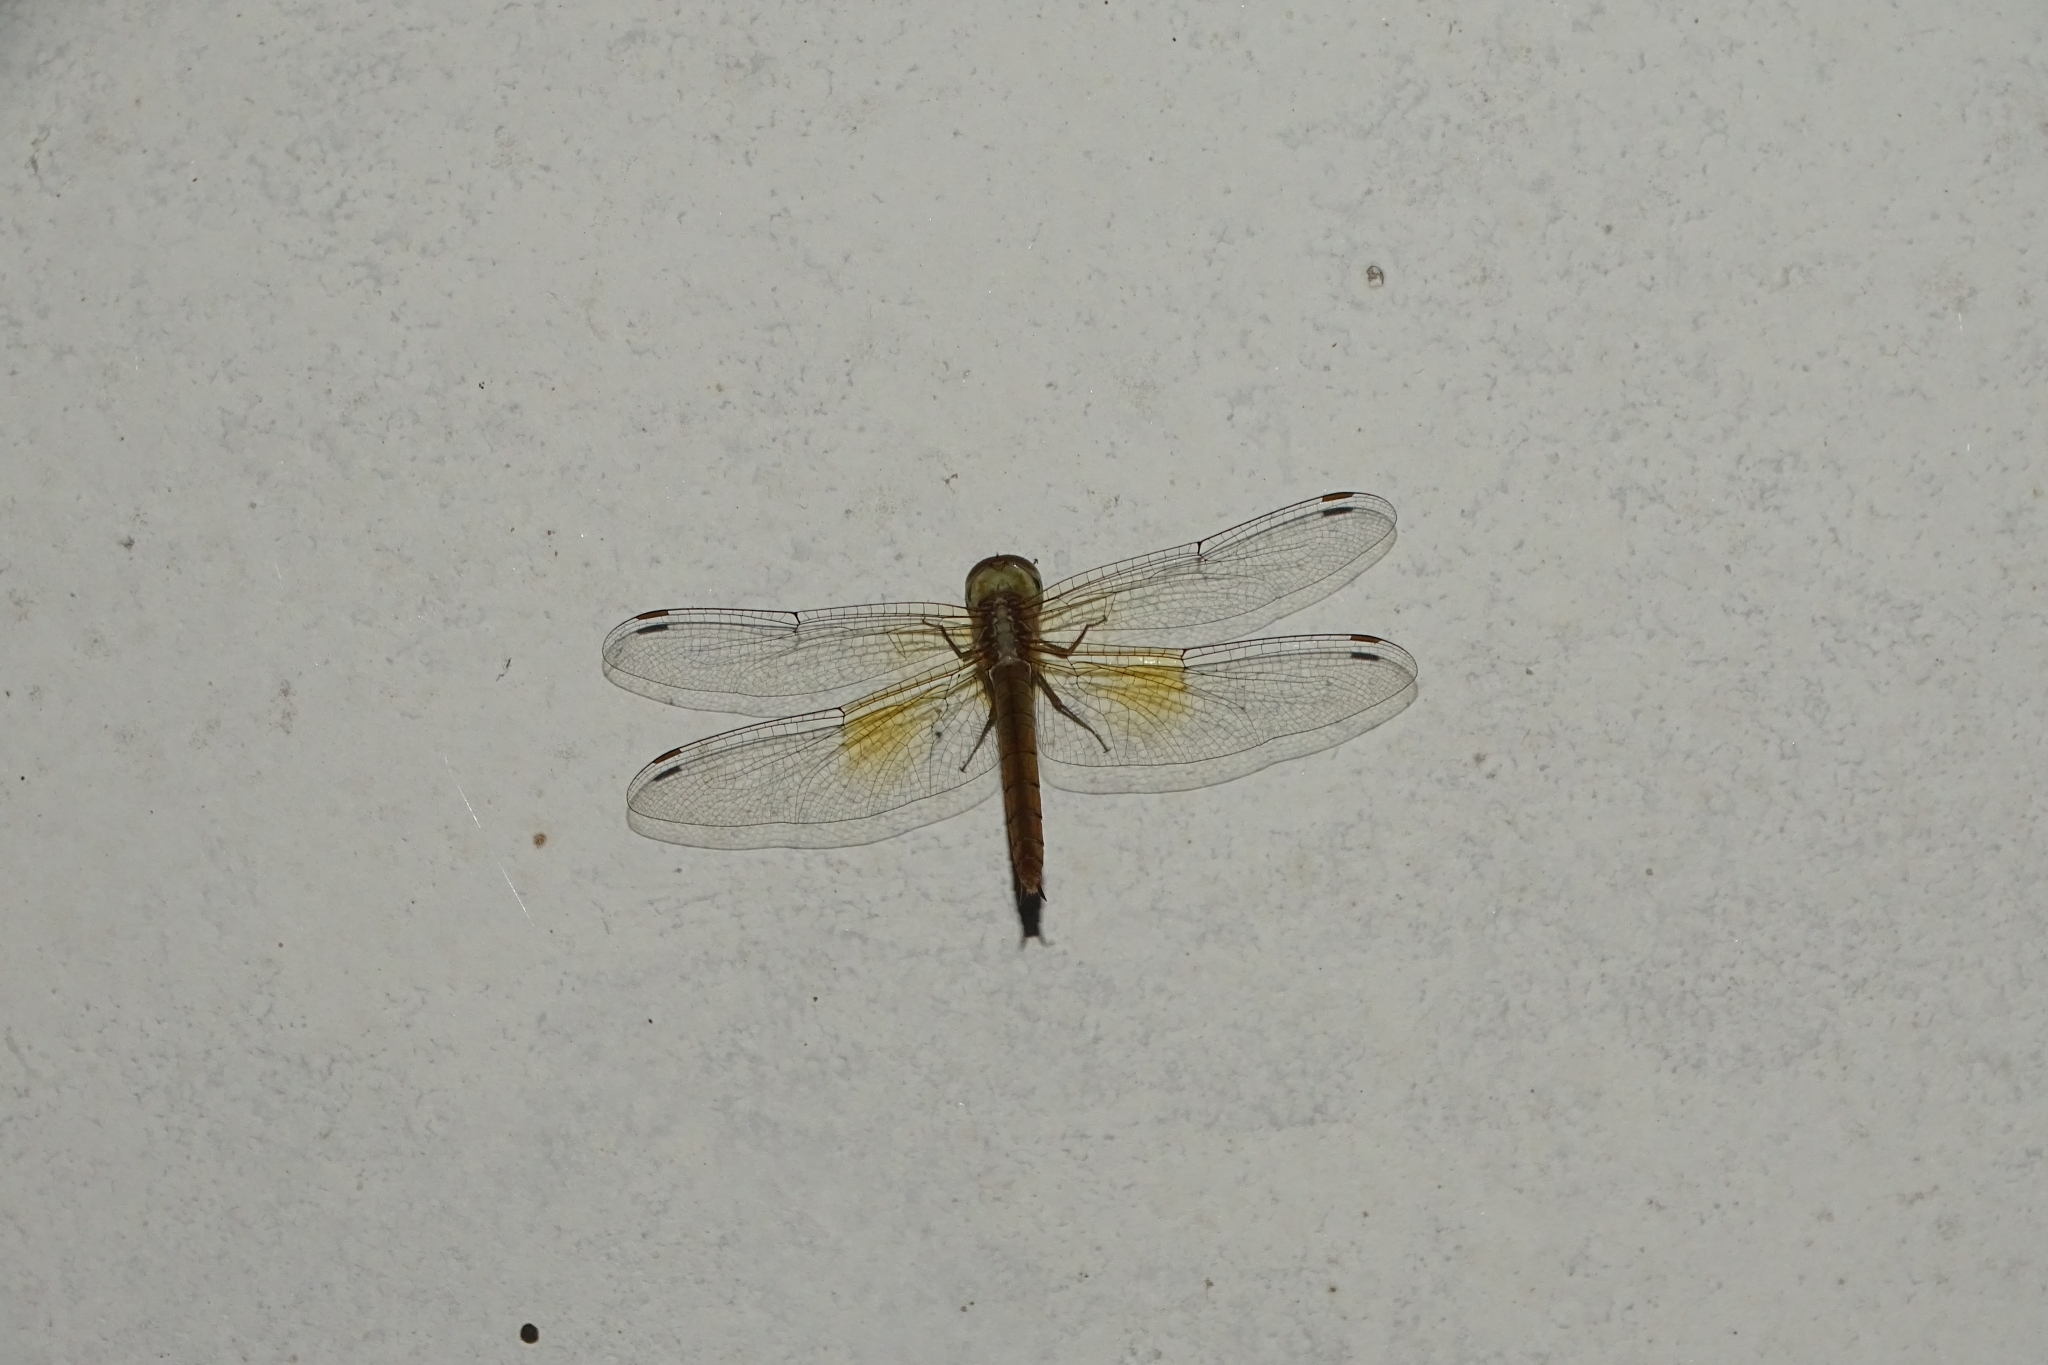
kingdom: Animalia
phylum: Arthropoda
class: Insecta
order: Odonata
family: Libellulidae
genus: Tholymis
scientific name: Tholymis tillarga
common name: Coral-tailed cloud wing
